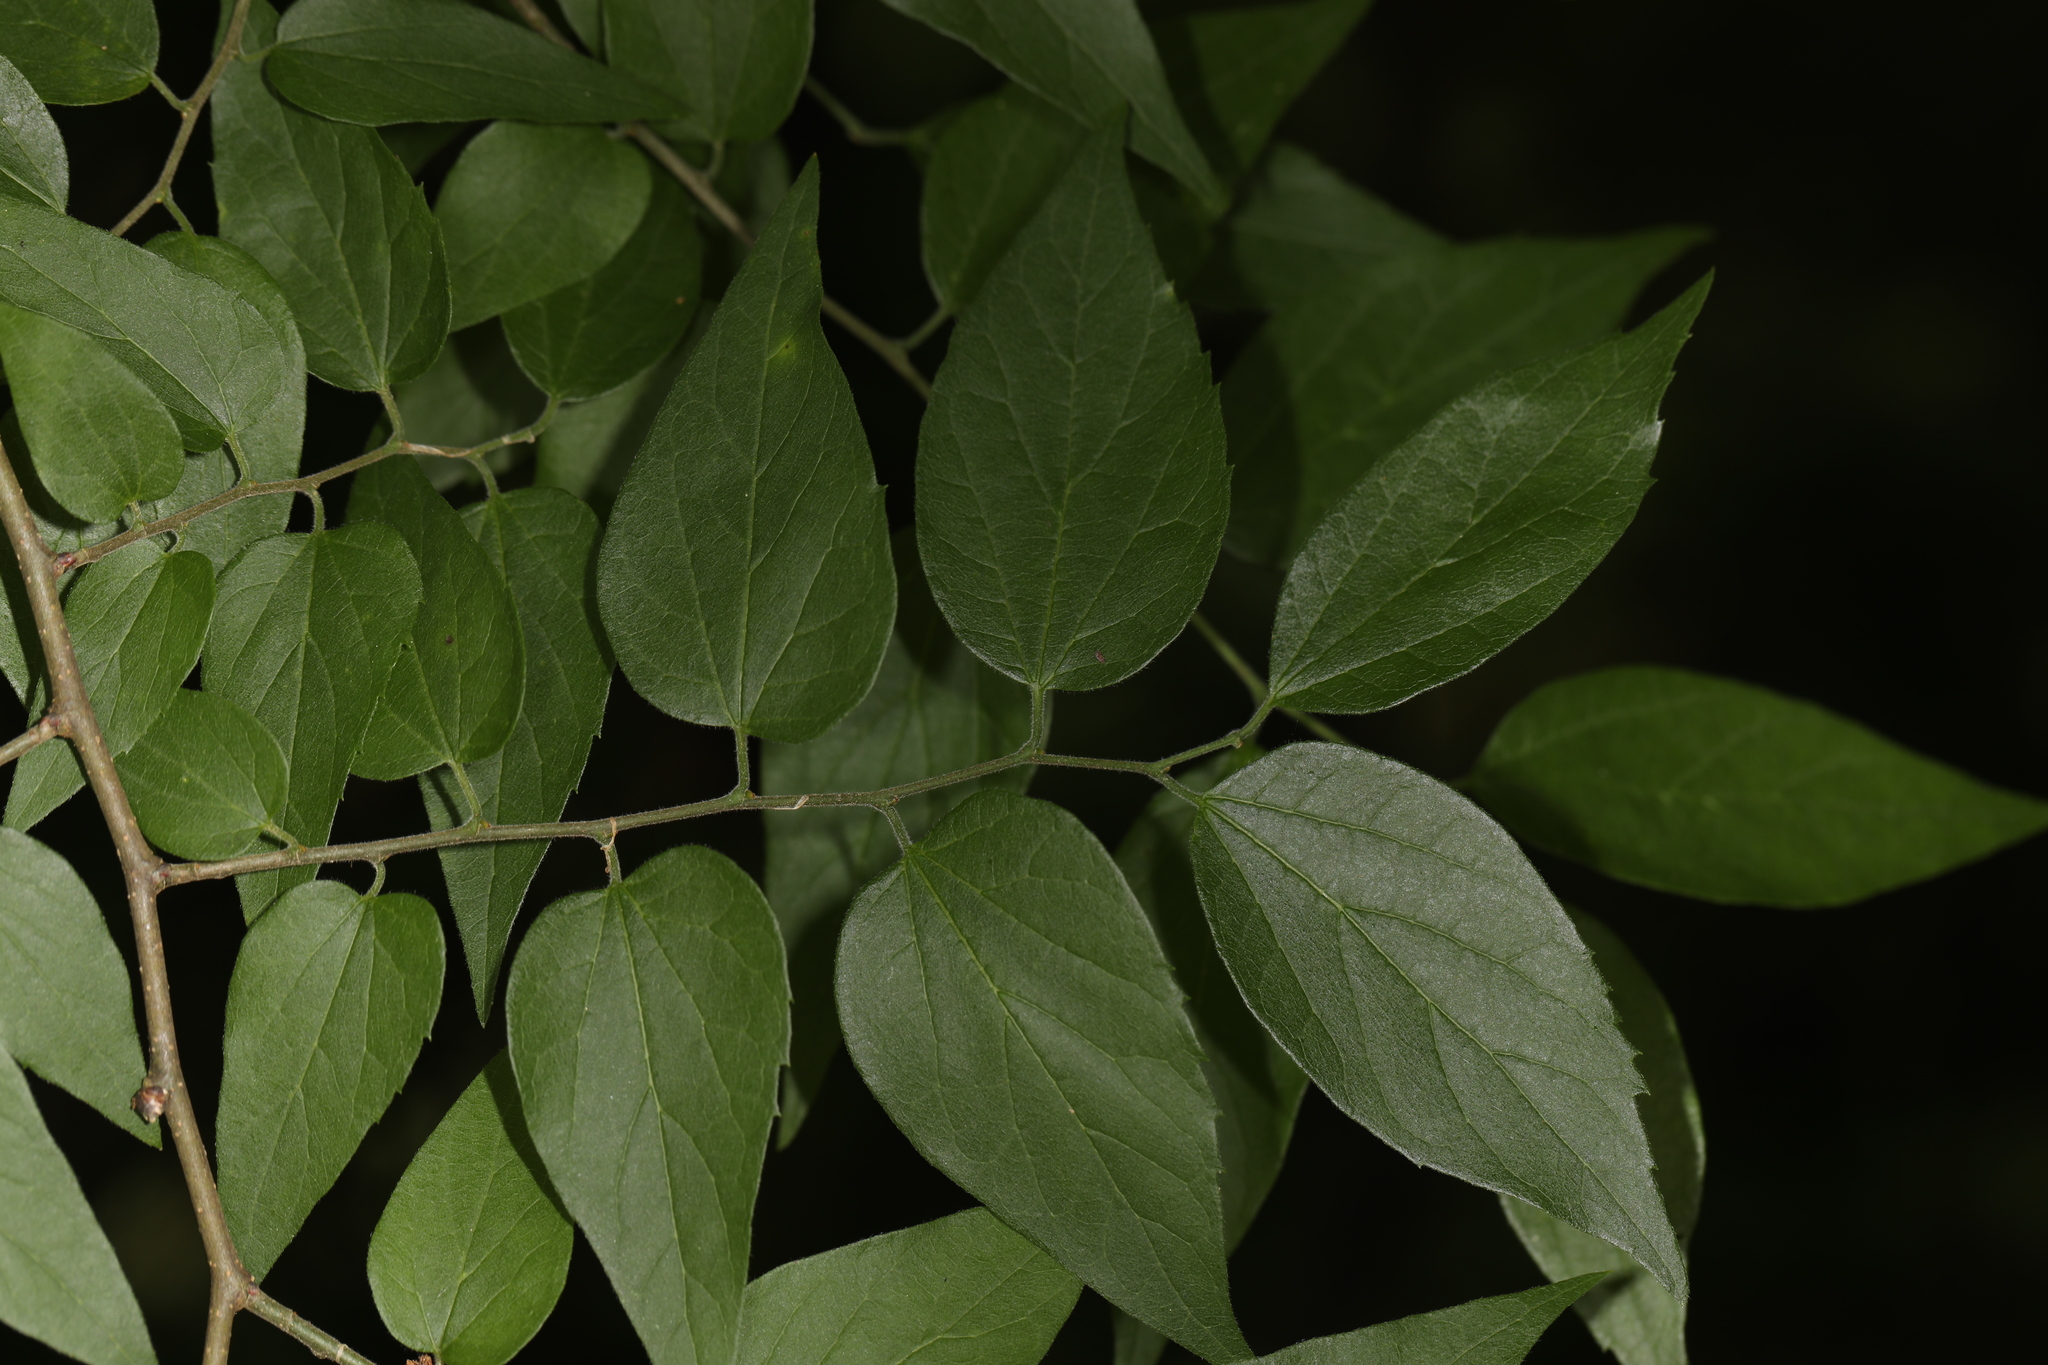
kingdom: Plantae
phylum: Tracheophyta
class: Magnoliopsida
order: Rosales
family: Cannabaceae
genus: Celtis
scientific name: Celtis laevigata
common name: Sugarberry
